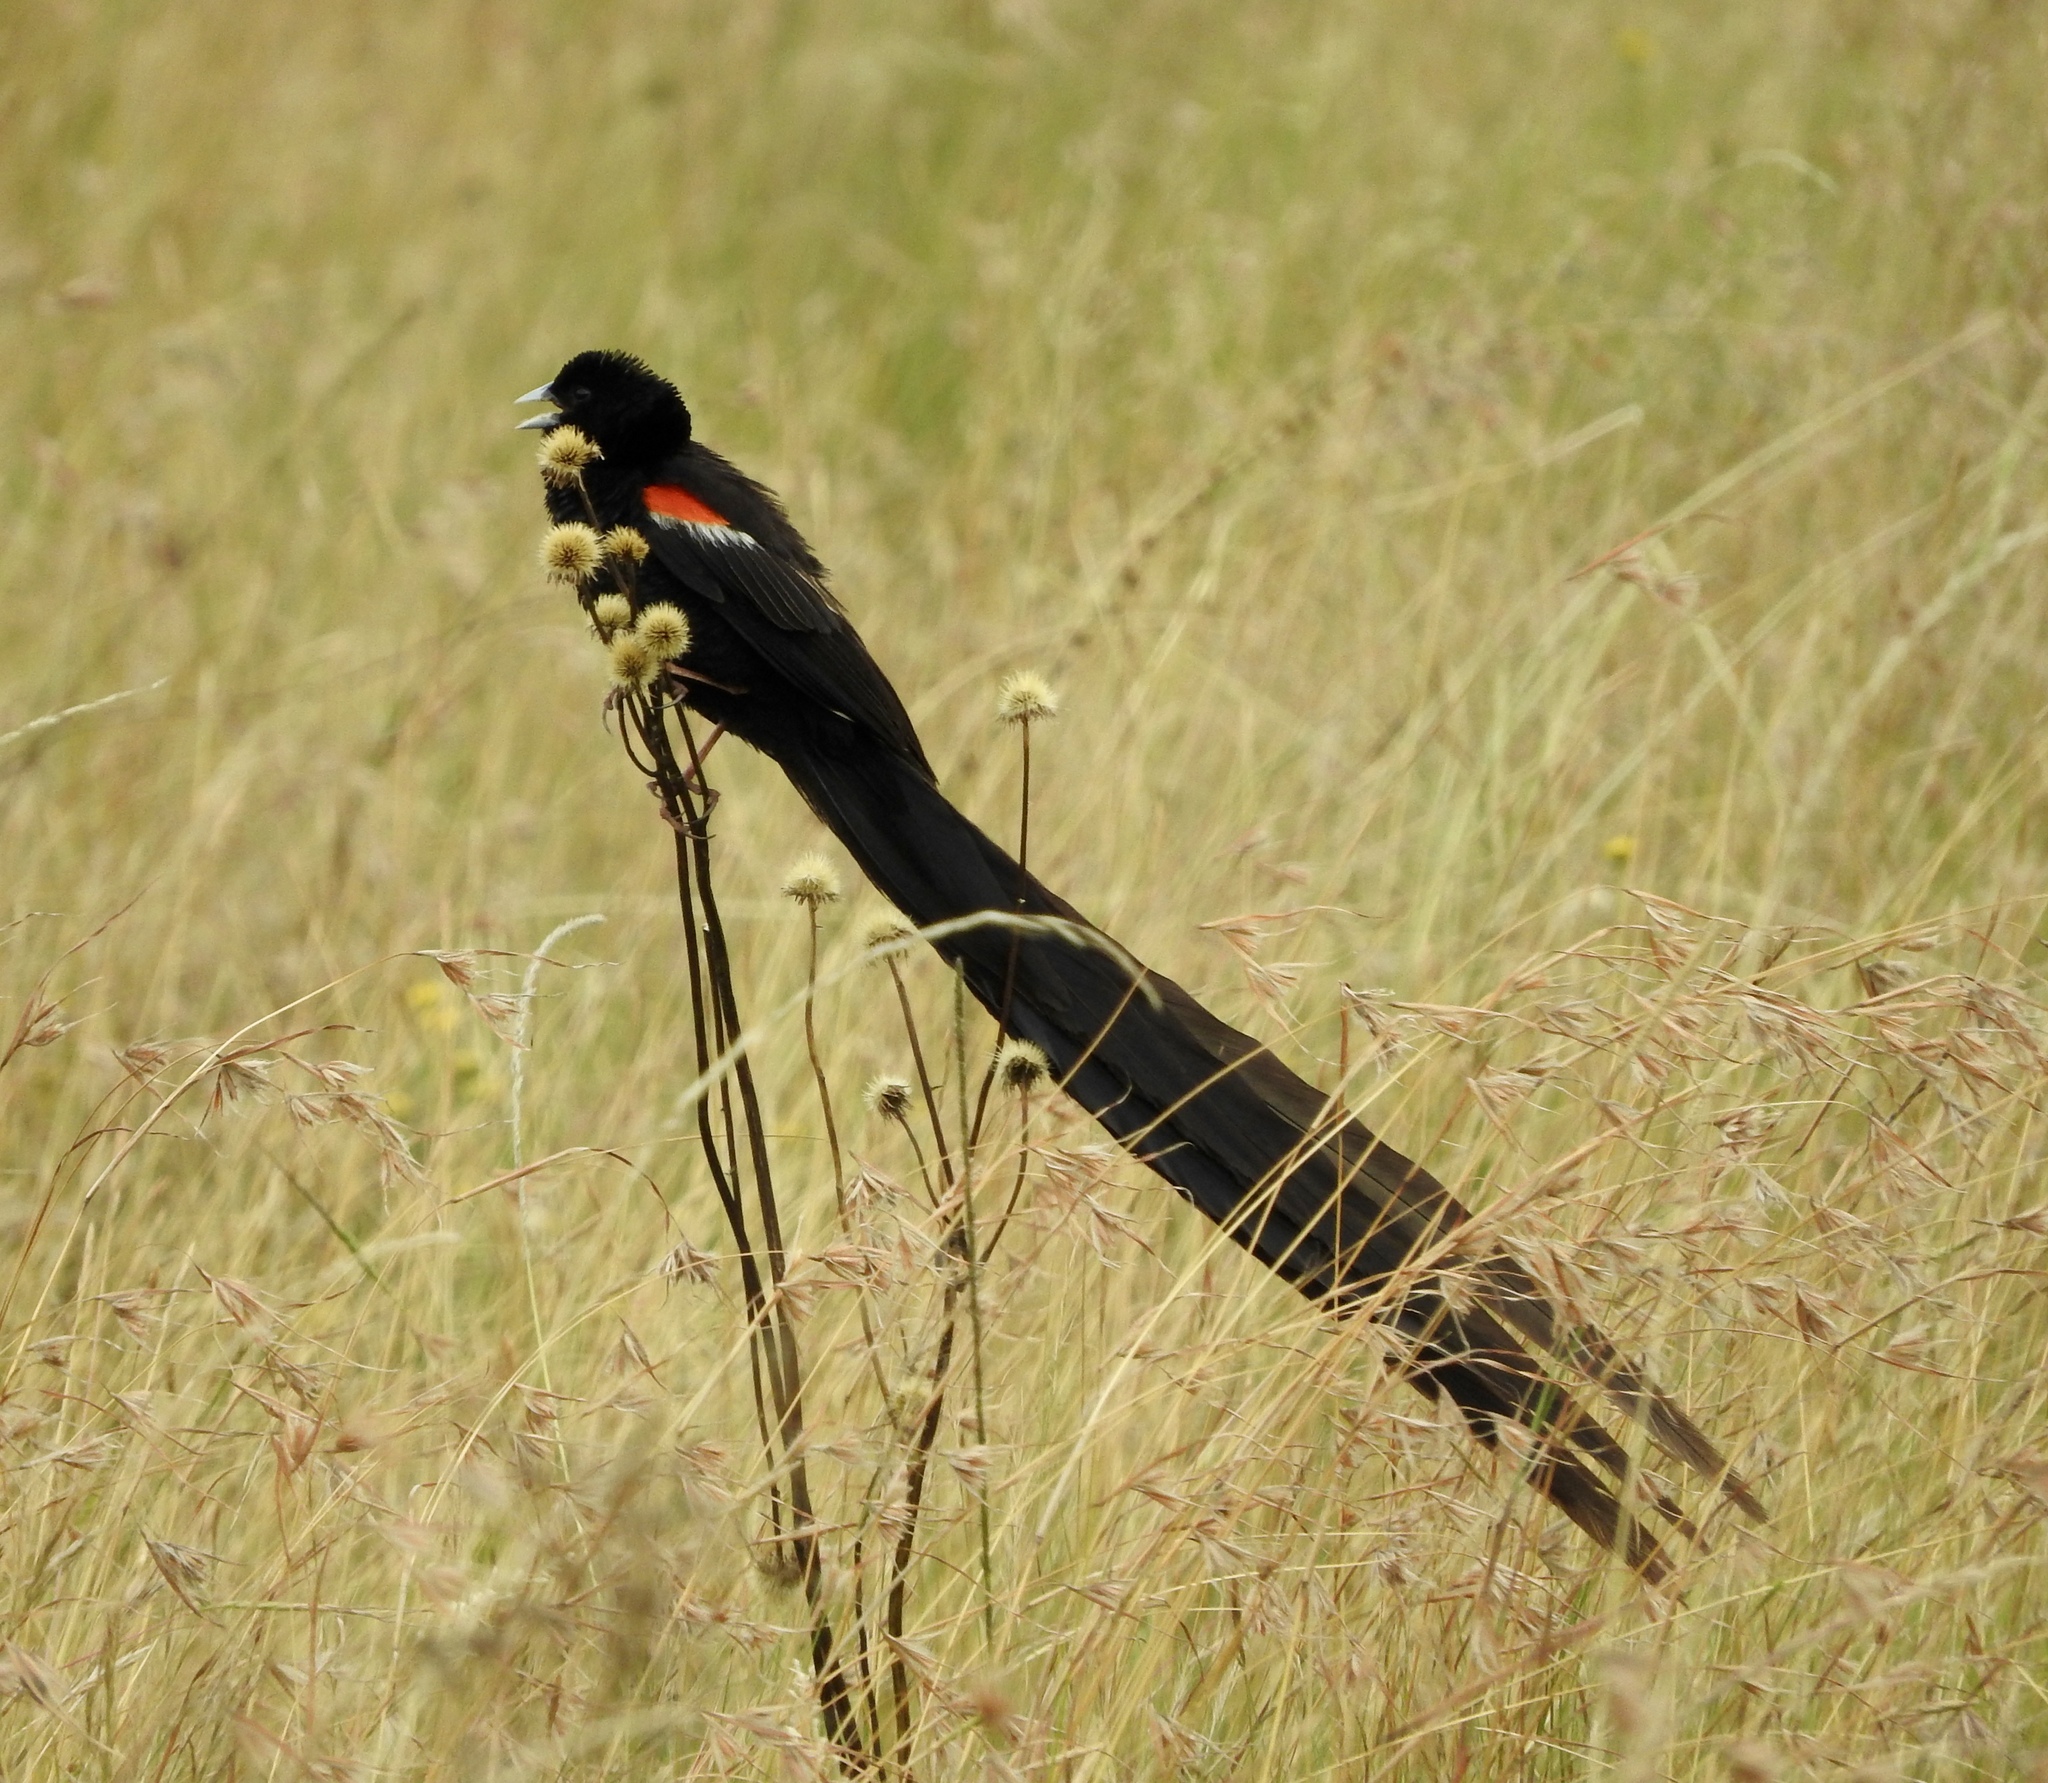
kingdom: Animalia
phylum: Chordata
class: Aves
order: Passeriformes
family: Ploceidae
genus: Euplectes
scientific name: Euplectes progne
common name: Long-tailed widowbird
